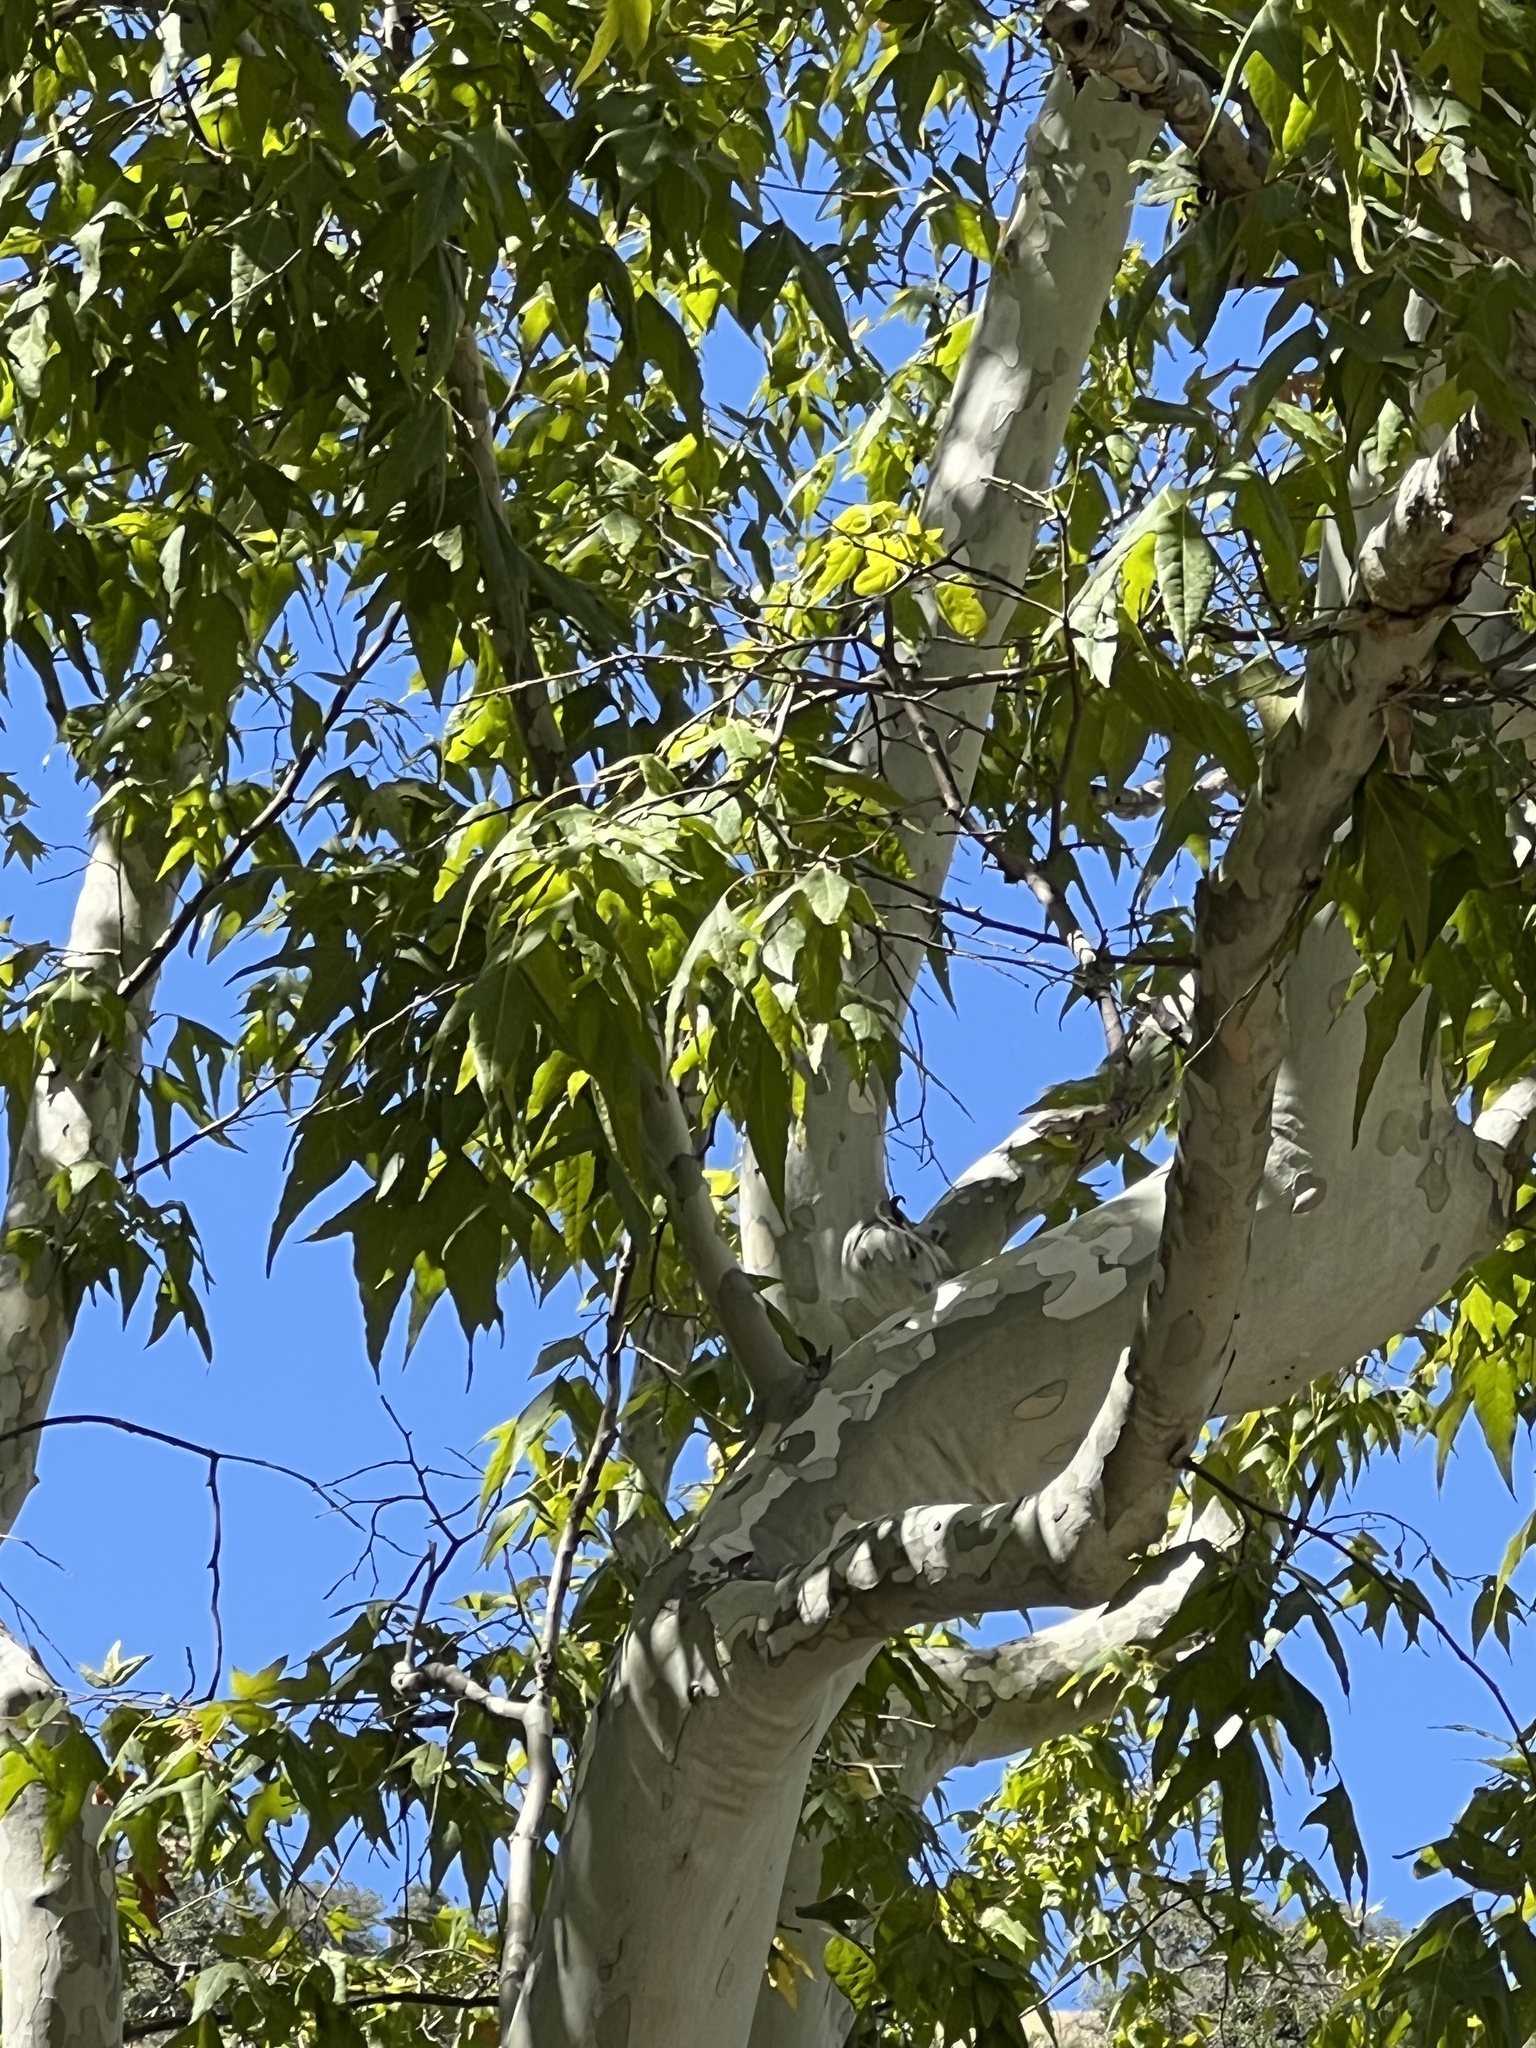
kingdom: Plantae
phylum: Tracheophyta
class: Magnoliopsida
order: Proteales
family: Platanaceae
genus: Platanus
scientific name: Platanus wrightii
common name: Arizona sycamore
